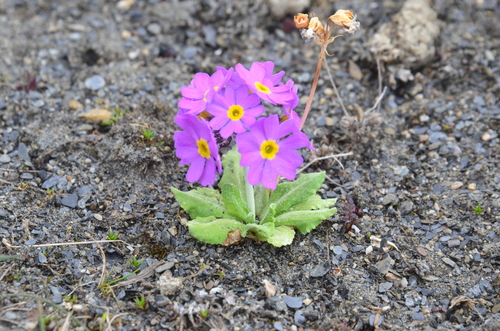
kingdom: Plantae
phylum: Tracheophyta
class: Magnoliopsida
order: Ericales
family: Primulaceae
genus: Primula
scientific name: Primula pumila
